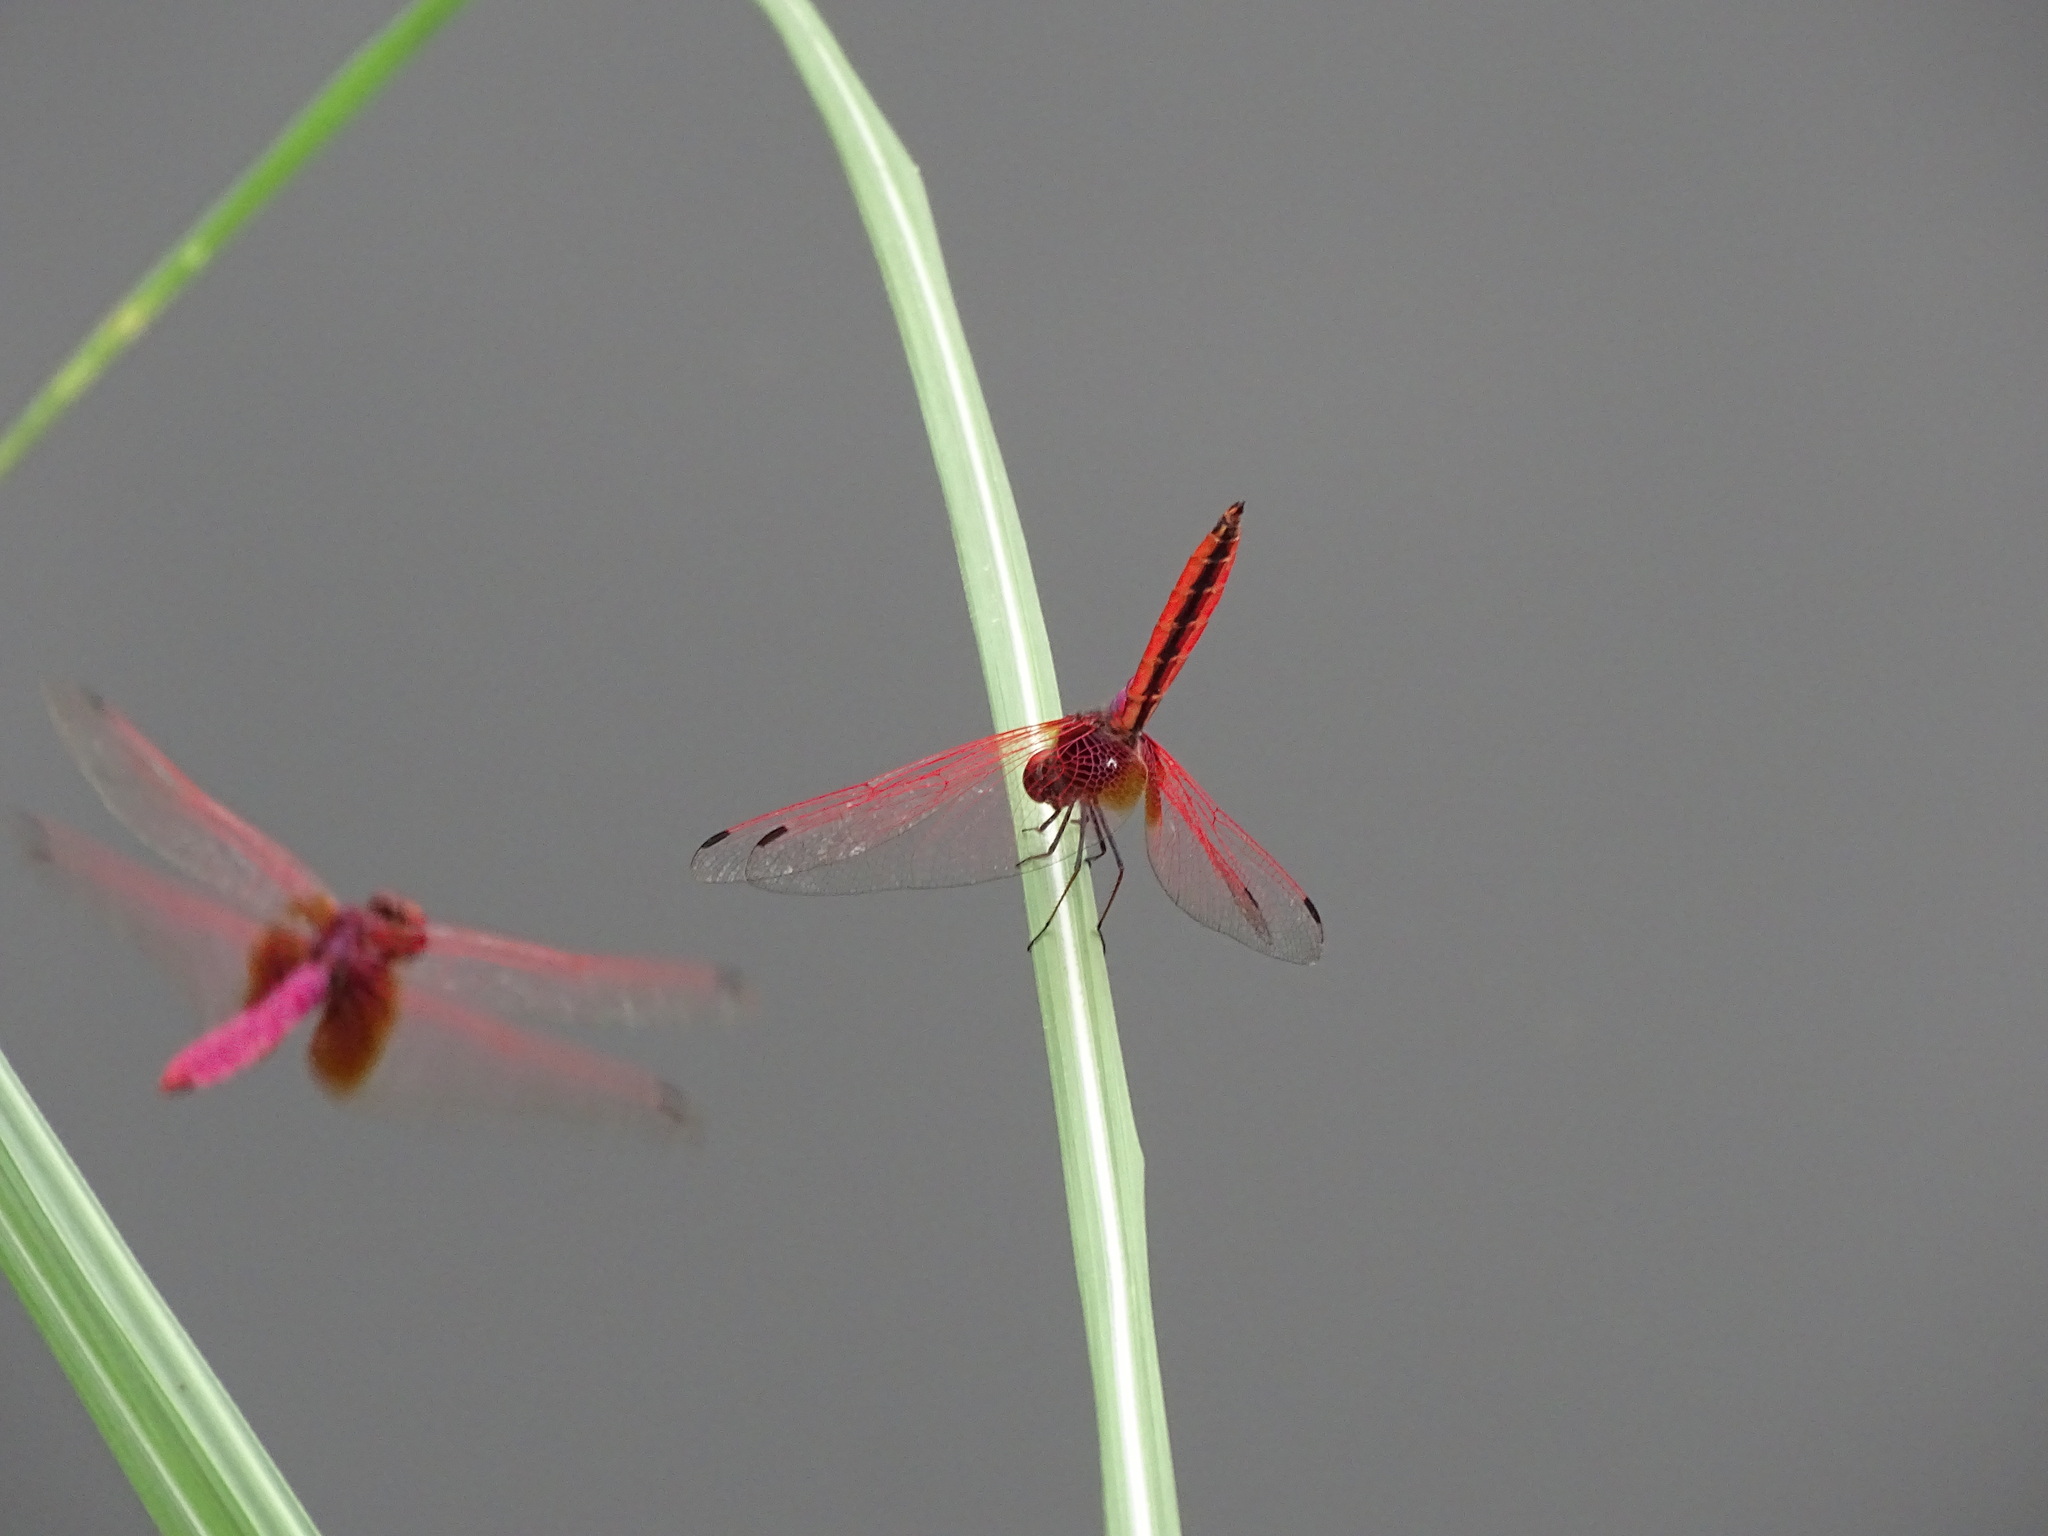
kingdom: Animalia
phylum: Arthropoda
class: Insecta
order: Odonata
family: Libellulidae
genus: Trithemis
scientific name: Trithemis aurora
